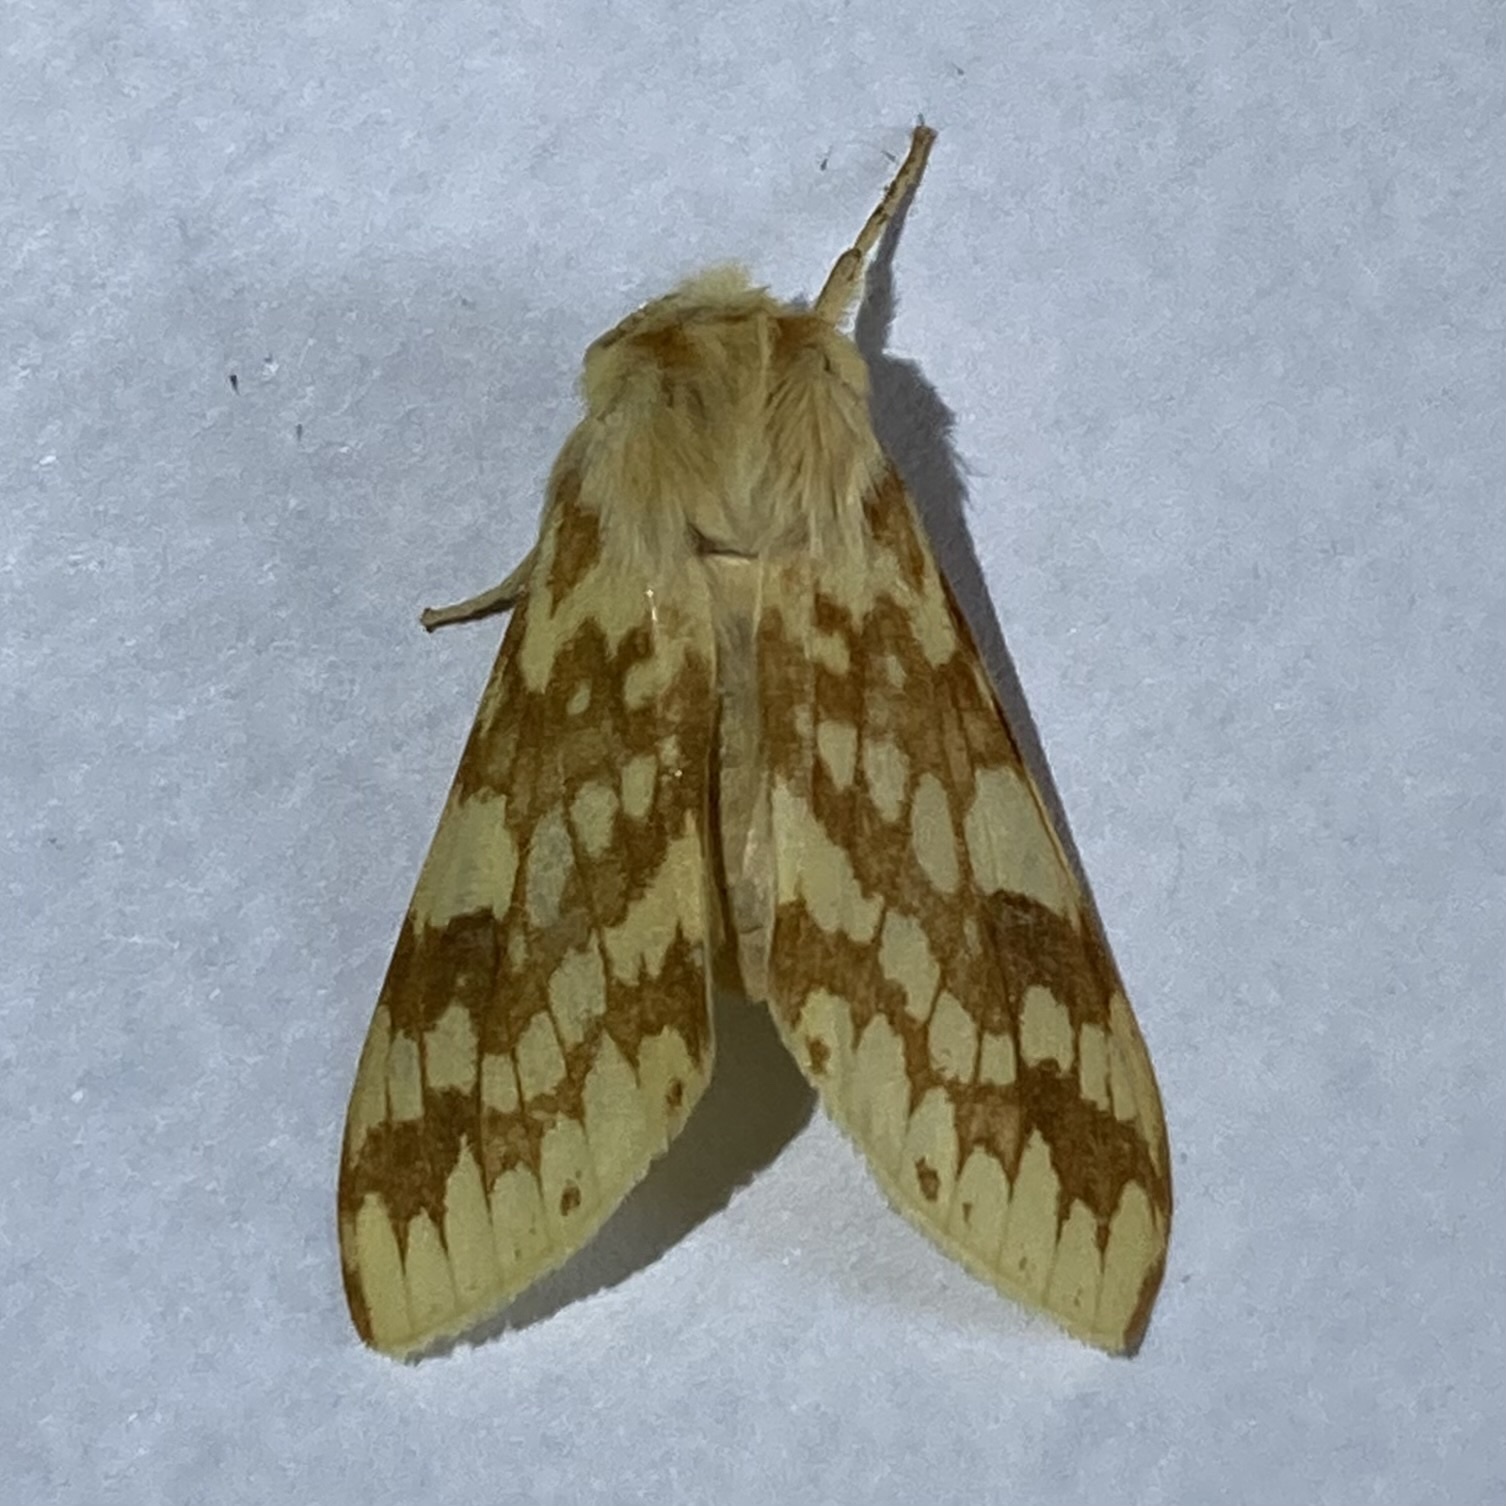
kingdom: Animalia
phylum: Arthropoda
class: Insecta
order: Lepidoptera
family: Erebidae
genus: Lophocampa
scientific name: Lophocampa maculata
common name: Spotted tussock moth
